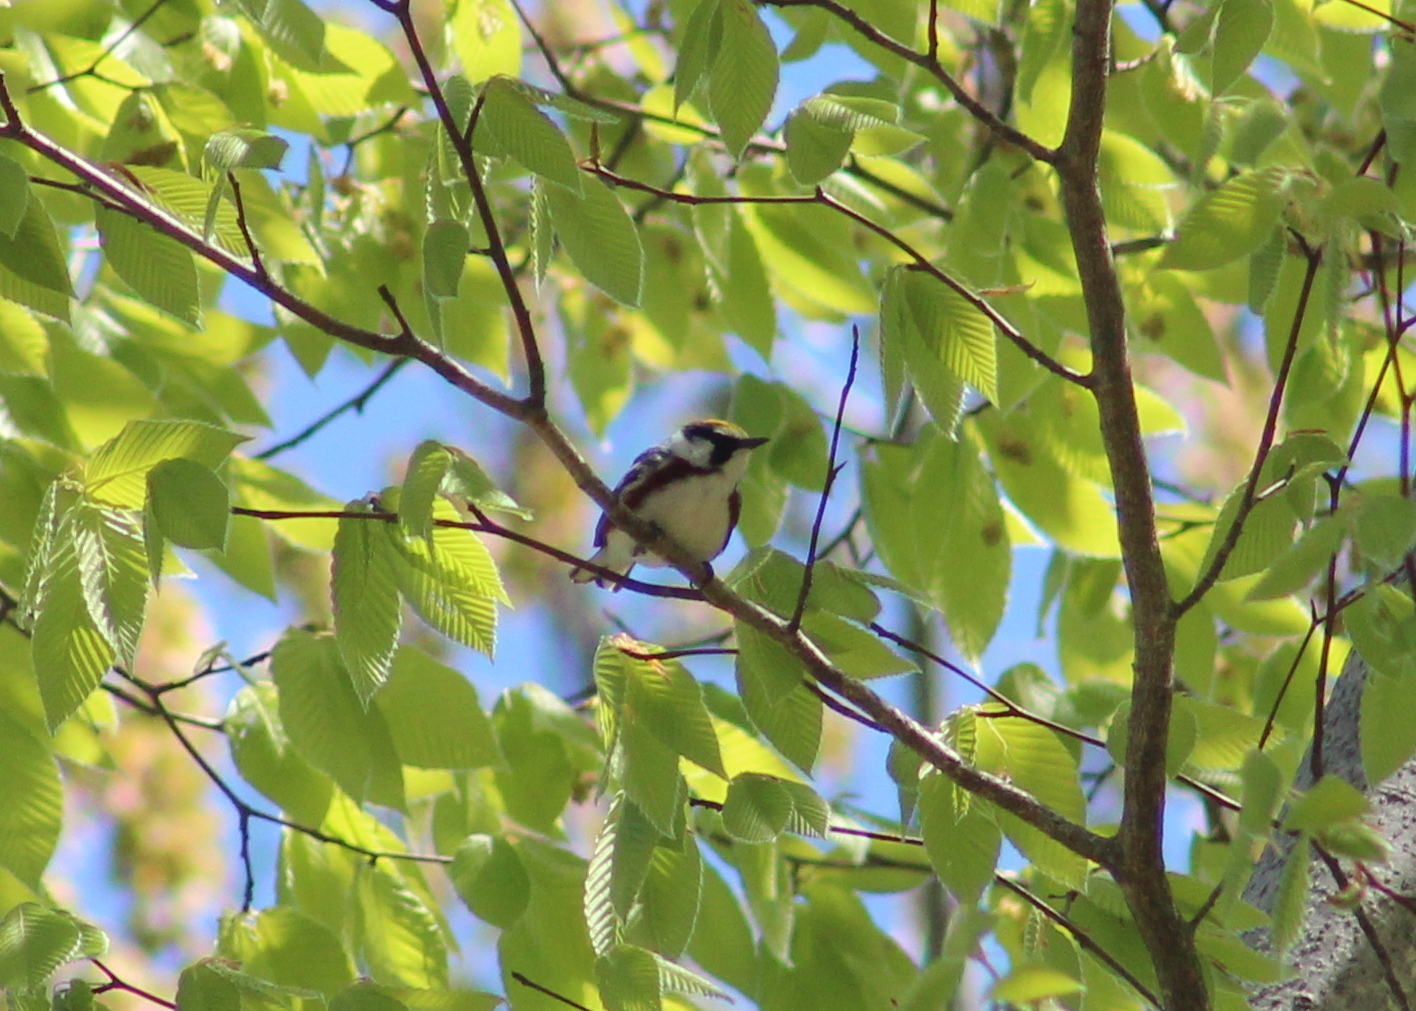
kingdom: Animalia
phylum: Chordata
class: Aves
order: Passeriformes
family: Parulidae
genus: Setophaga
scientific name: Setophaga pensylvanica
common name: Chestnut-sided warbler
